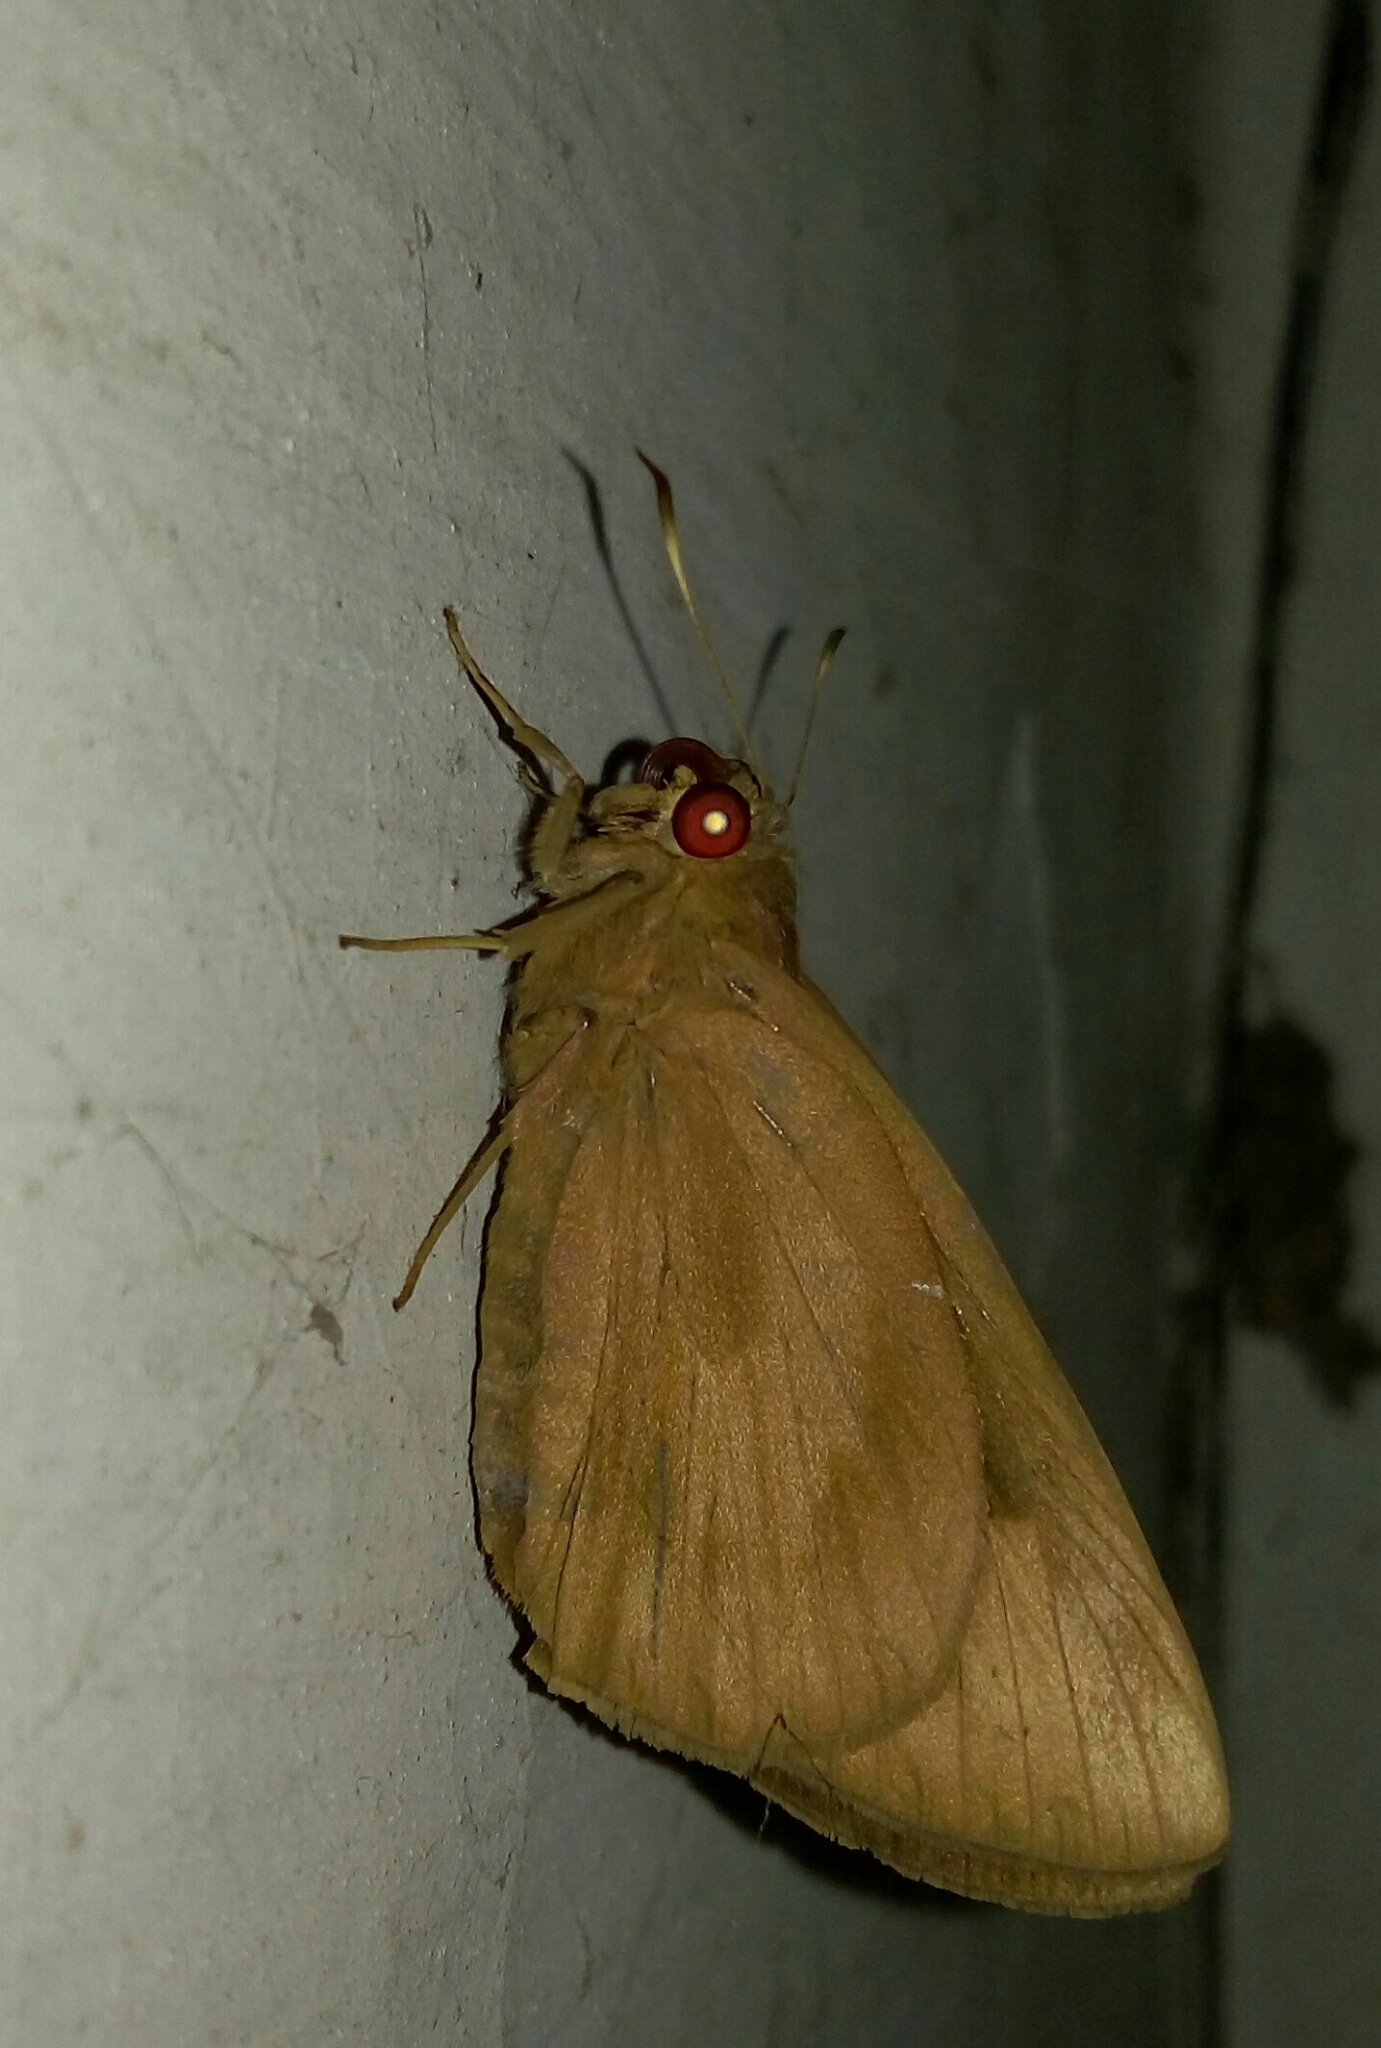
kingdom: Animalia
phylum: Arthropoda
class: Insecta
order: Lepidoptera
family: Hesperiidae
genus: Erionota
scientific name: Erionota torus
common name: Rounded palm-redeye
